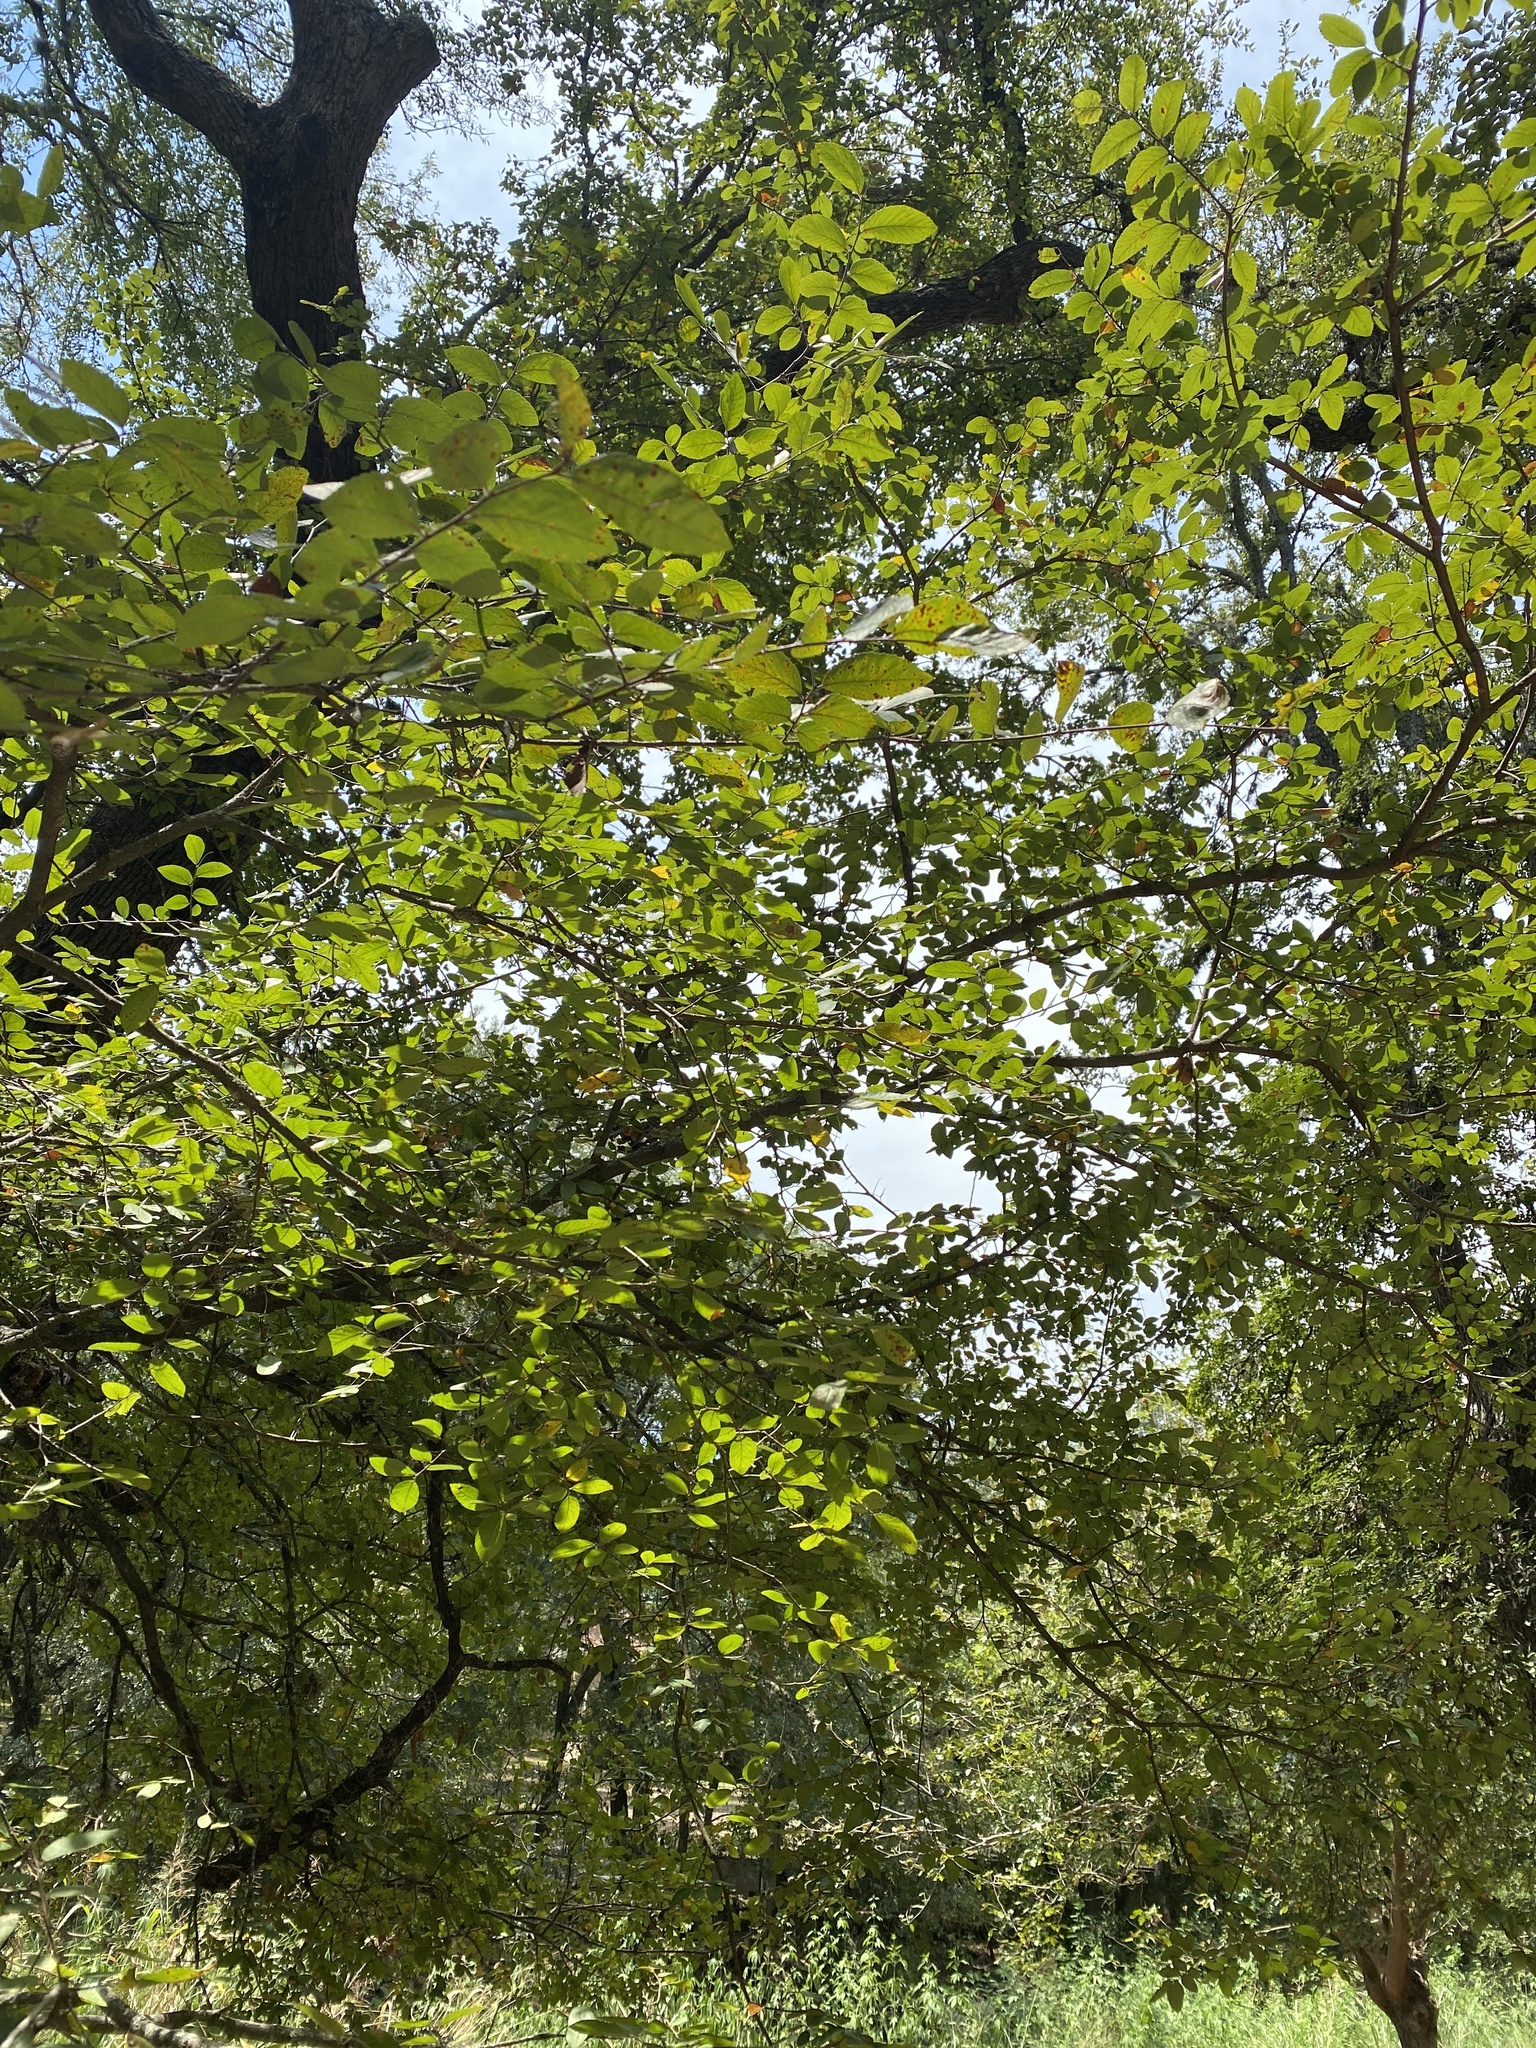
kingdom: Plantae
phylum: Tracheophyta
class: Magnoliopsida
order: Rosales
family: Ulmaceae
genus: Ulmus
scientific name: Ulmus crassifolia
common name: Basket elm
